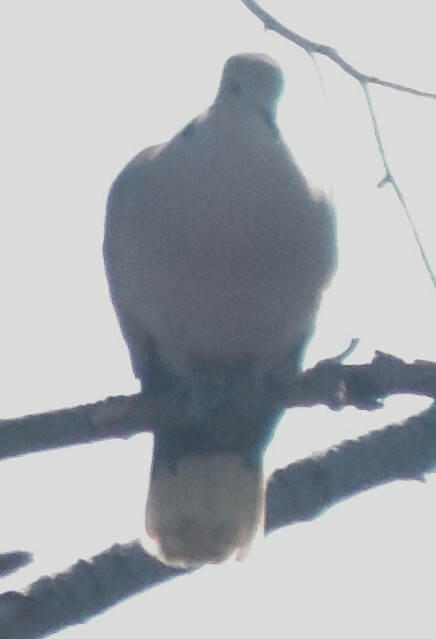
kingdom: Animalia
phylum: Chordata
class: Aves
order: Columbiformes
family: Columbidae
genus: Streptopelia
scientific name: Streptopelia decaocto
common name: Eurasian collared dove
